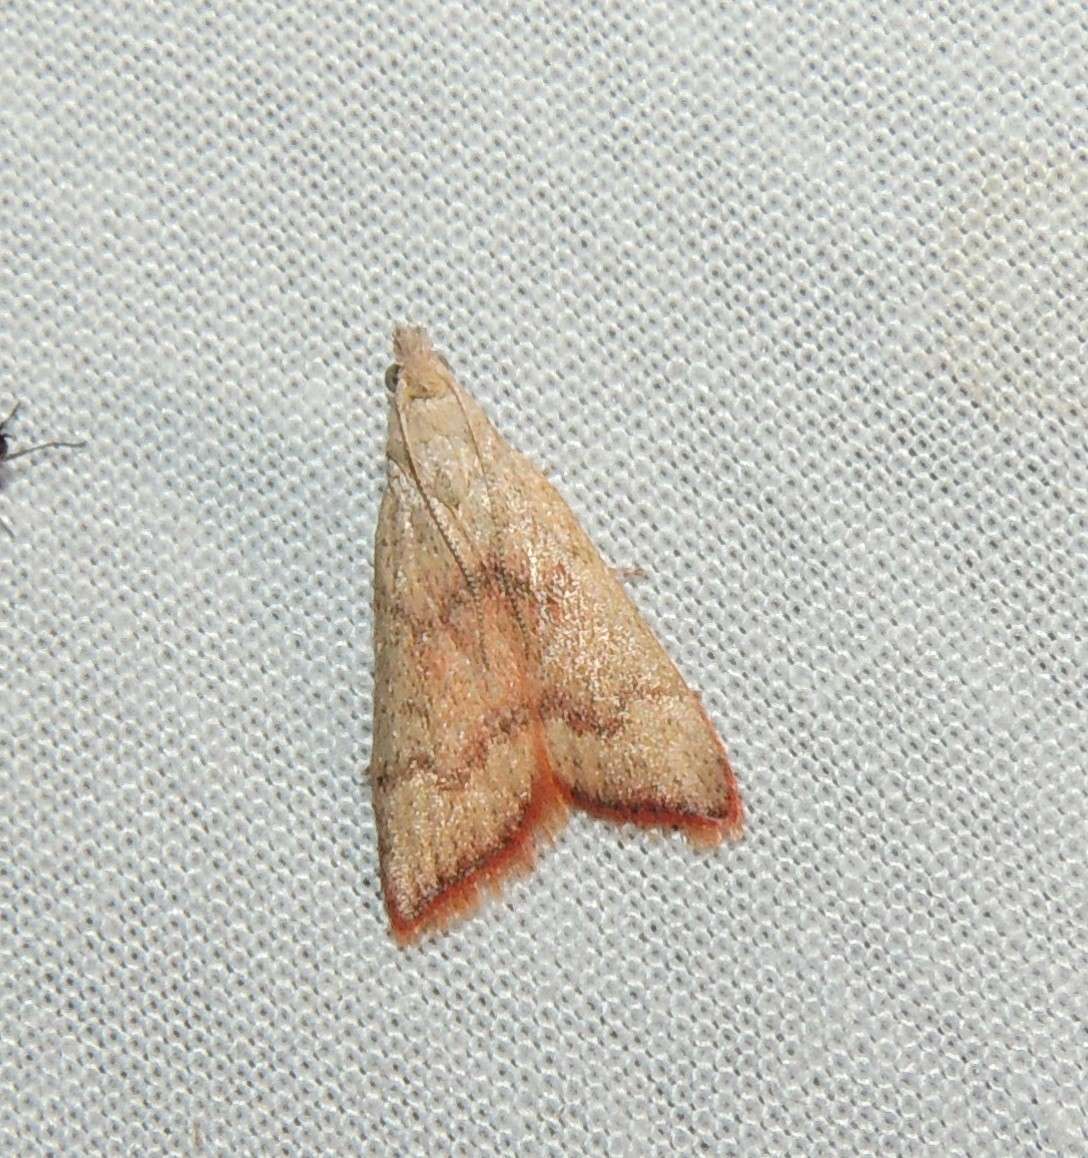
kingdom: Animalia
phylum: Arthropoda
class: Insecta
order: Lepidoptera
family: Pyralidae
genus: Callionyma
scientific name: Callionyma sarcodes
